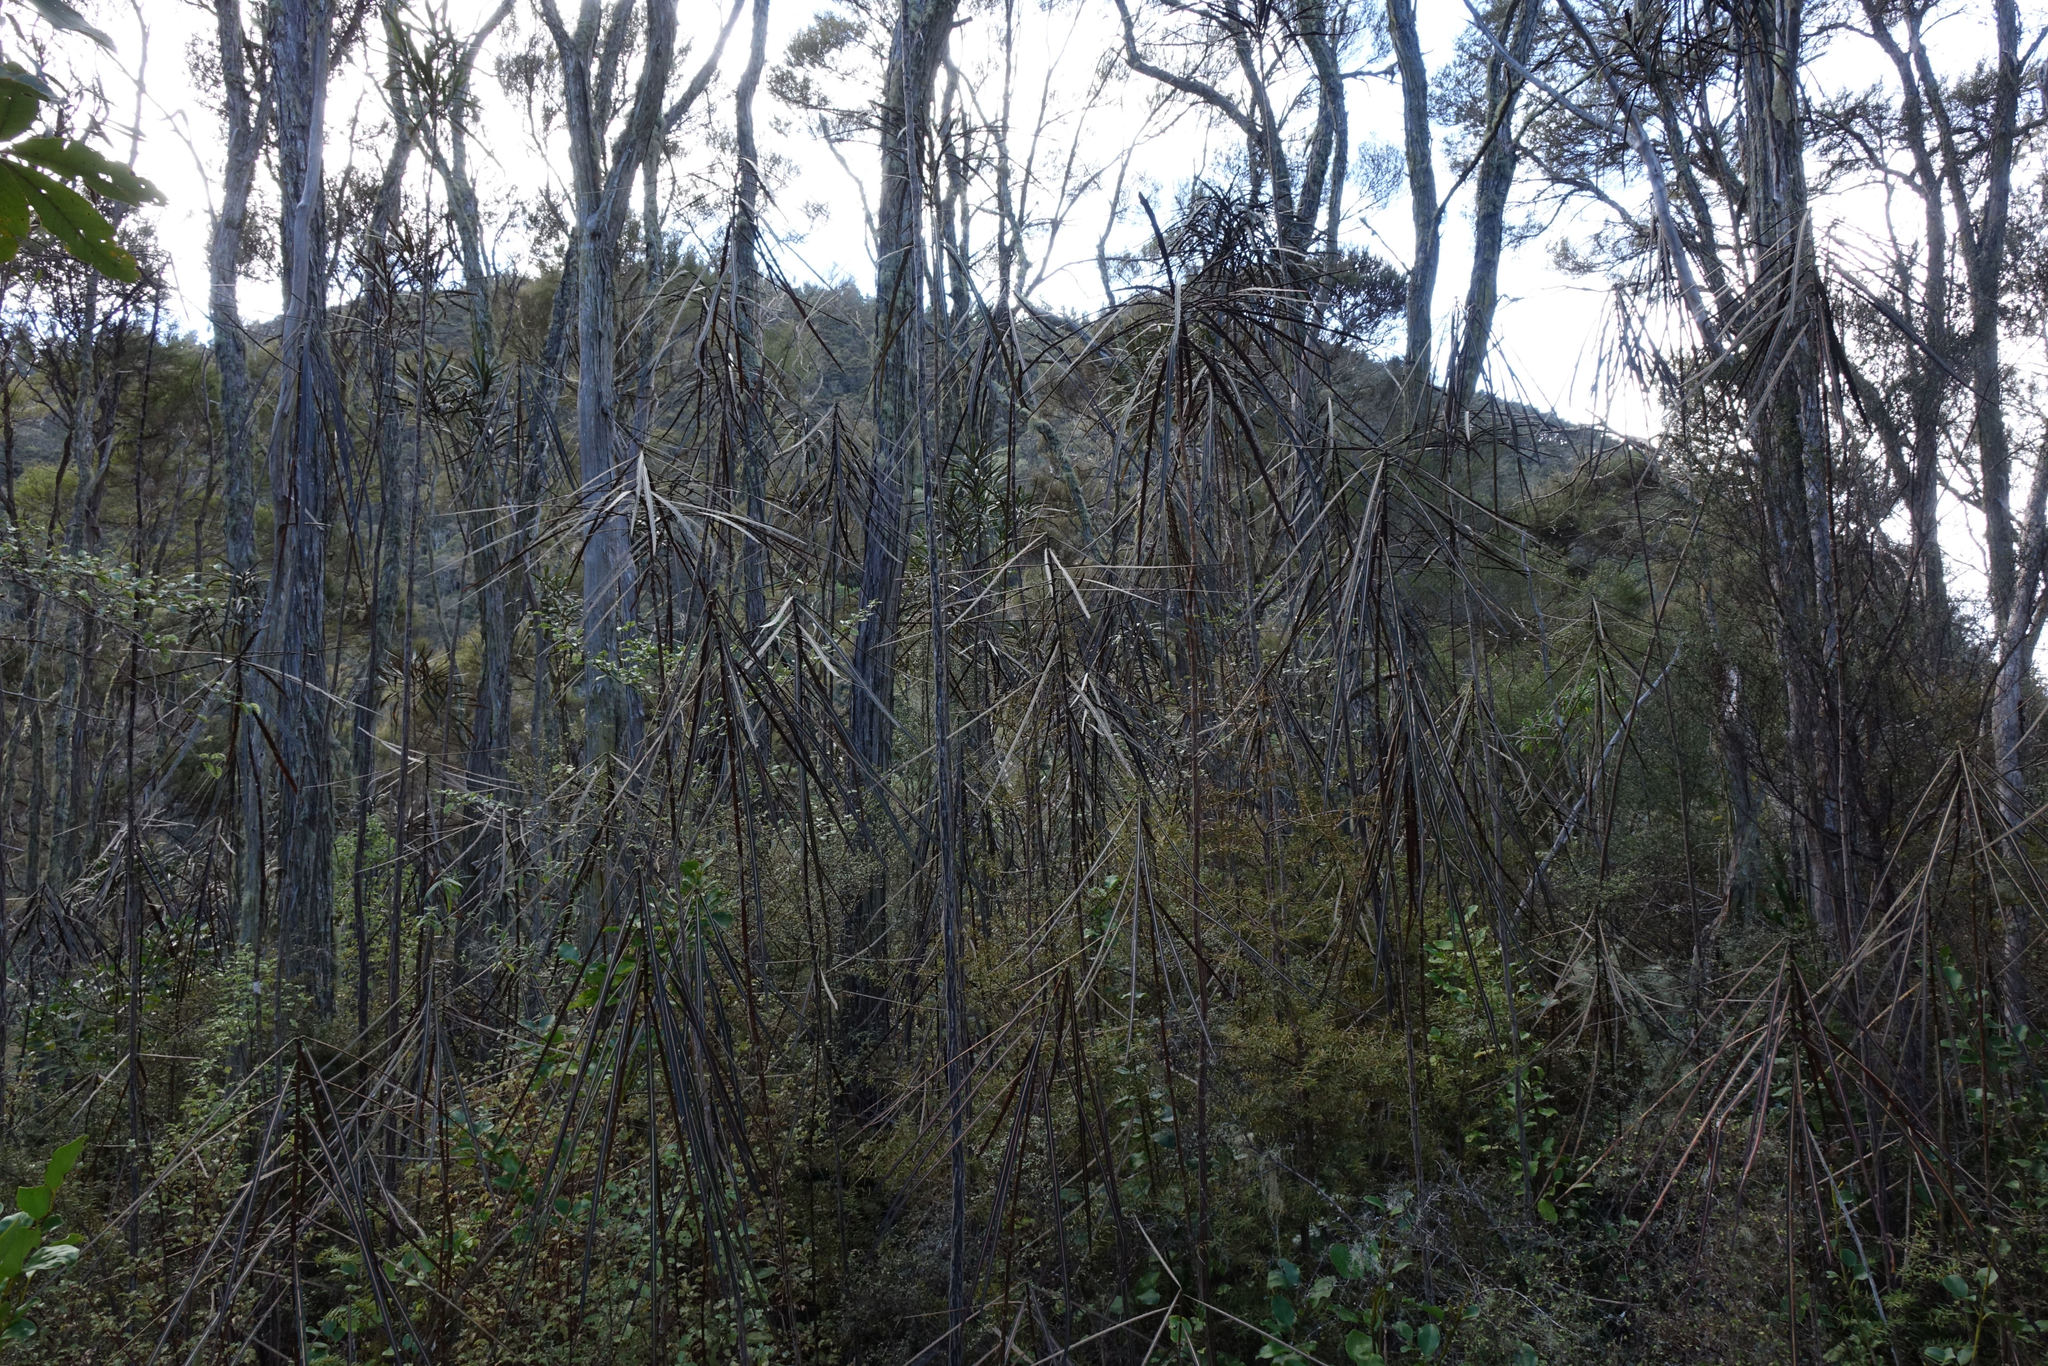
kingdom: Plantae
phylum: Tracheophyta
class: Magnoliopsida
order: Apiales
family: Araliaceae
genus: Pseudopanax
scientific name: Pseudopanax crassifolius
